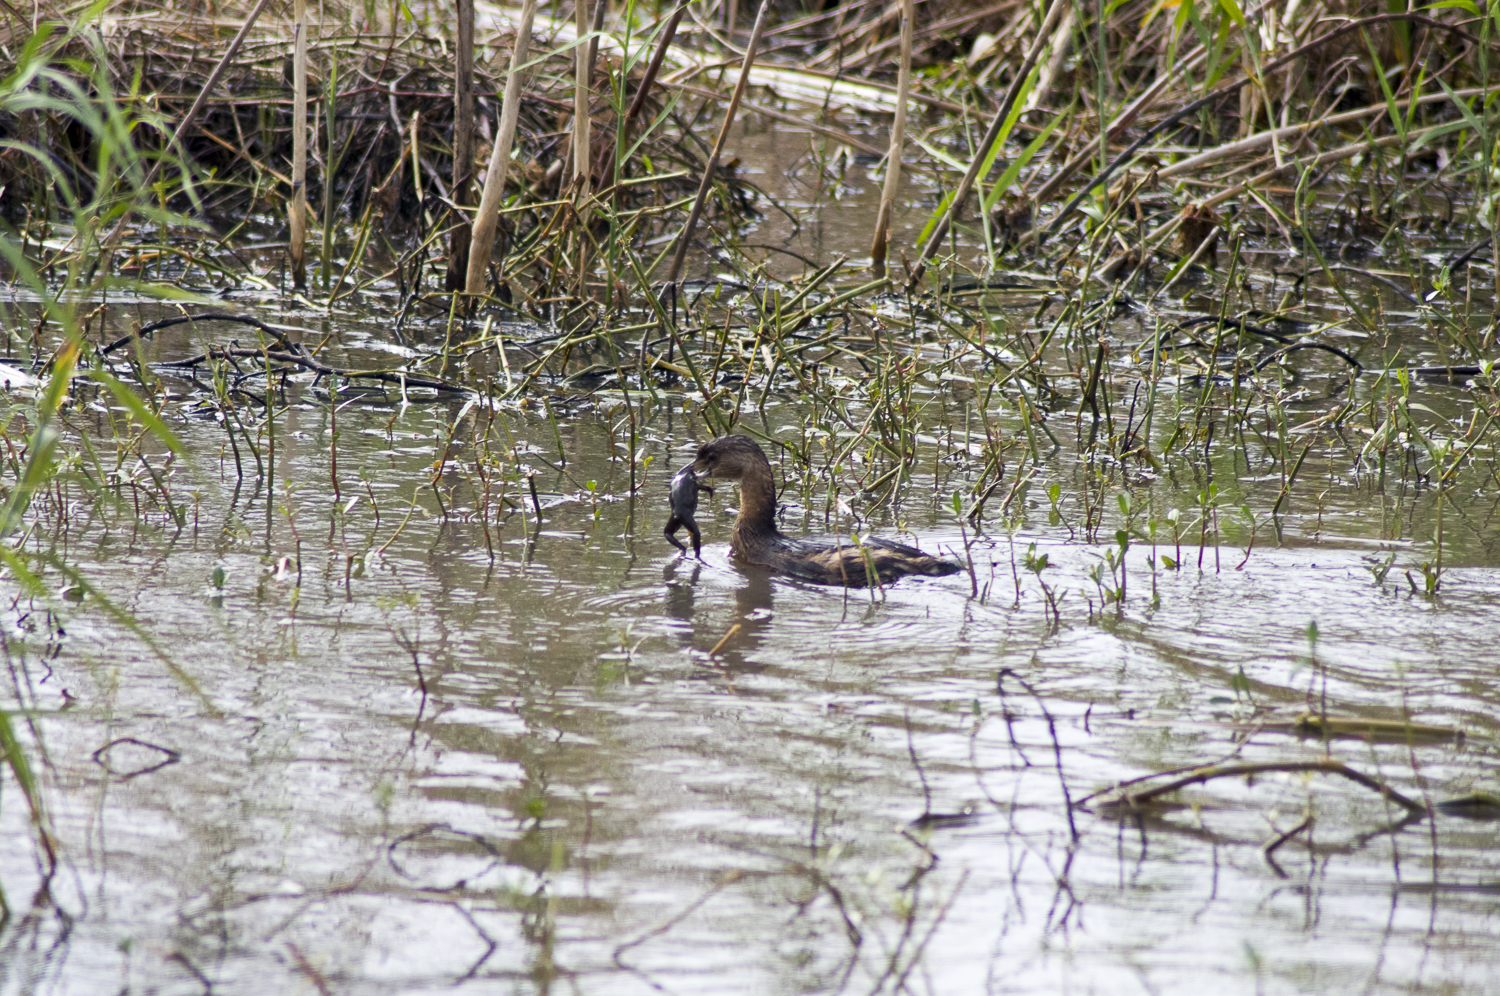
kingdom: Animalia
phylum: Chordata
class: Aves
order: Podicipediformes
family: Podicipedidae
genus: Podilymbus
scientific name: Podilymbus podiceps
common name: Pied-billed grebe
